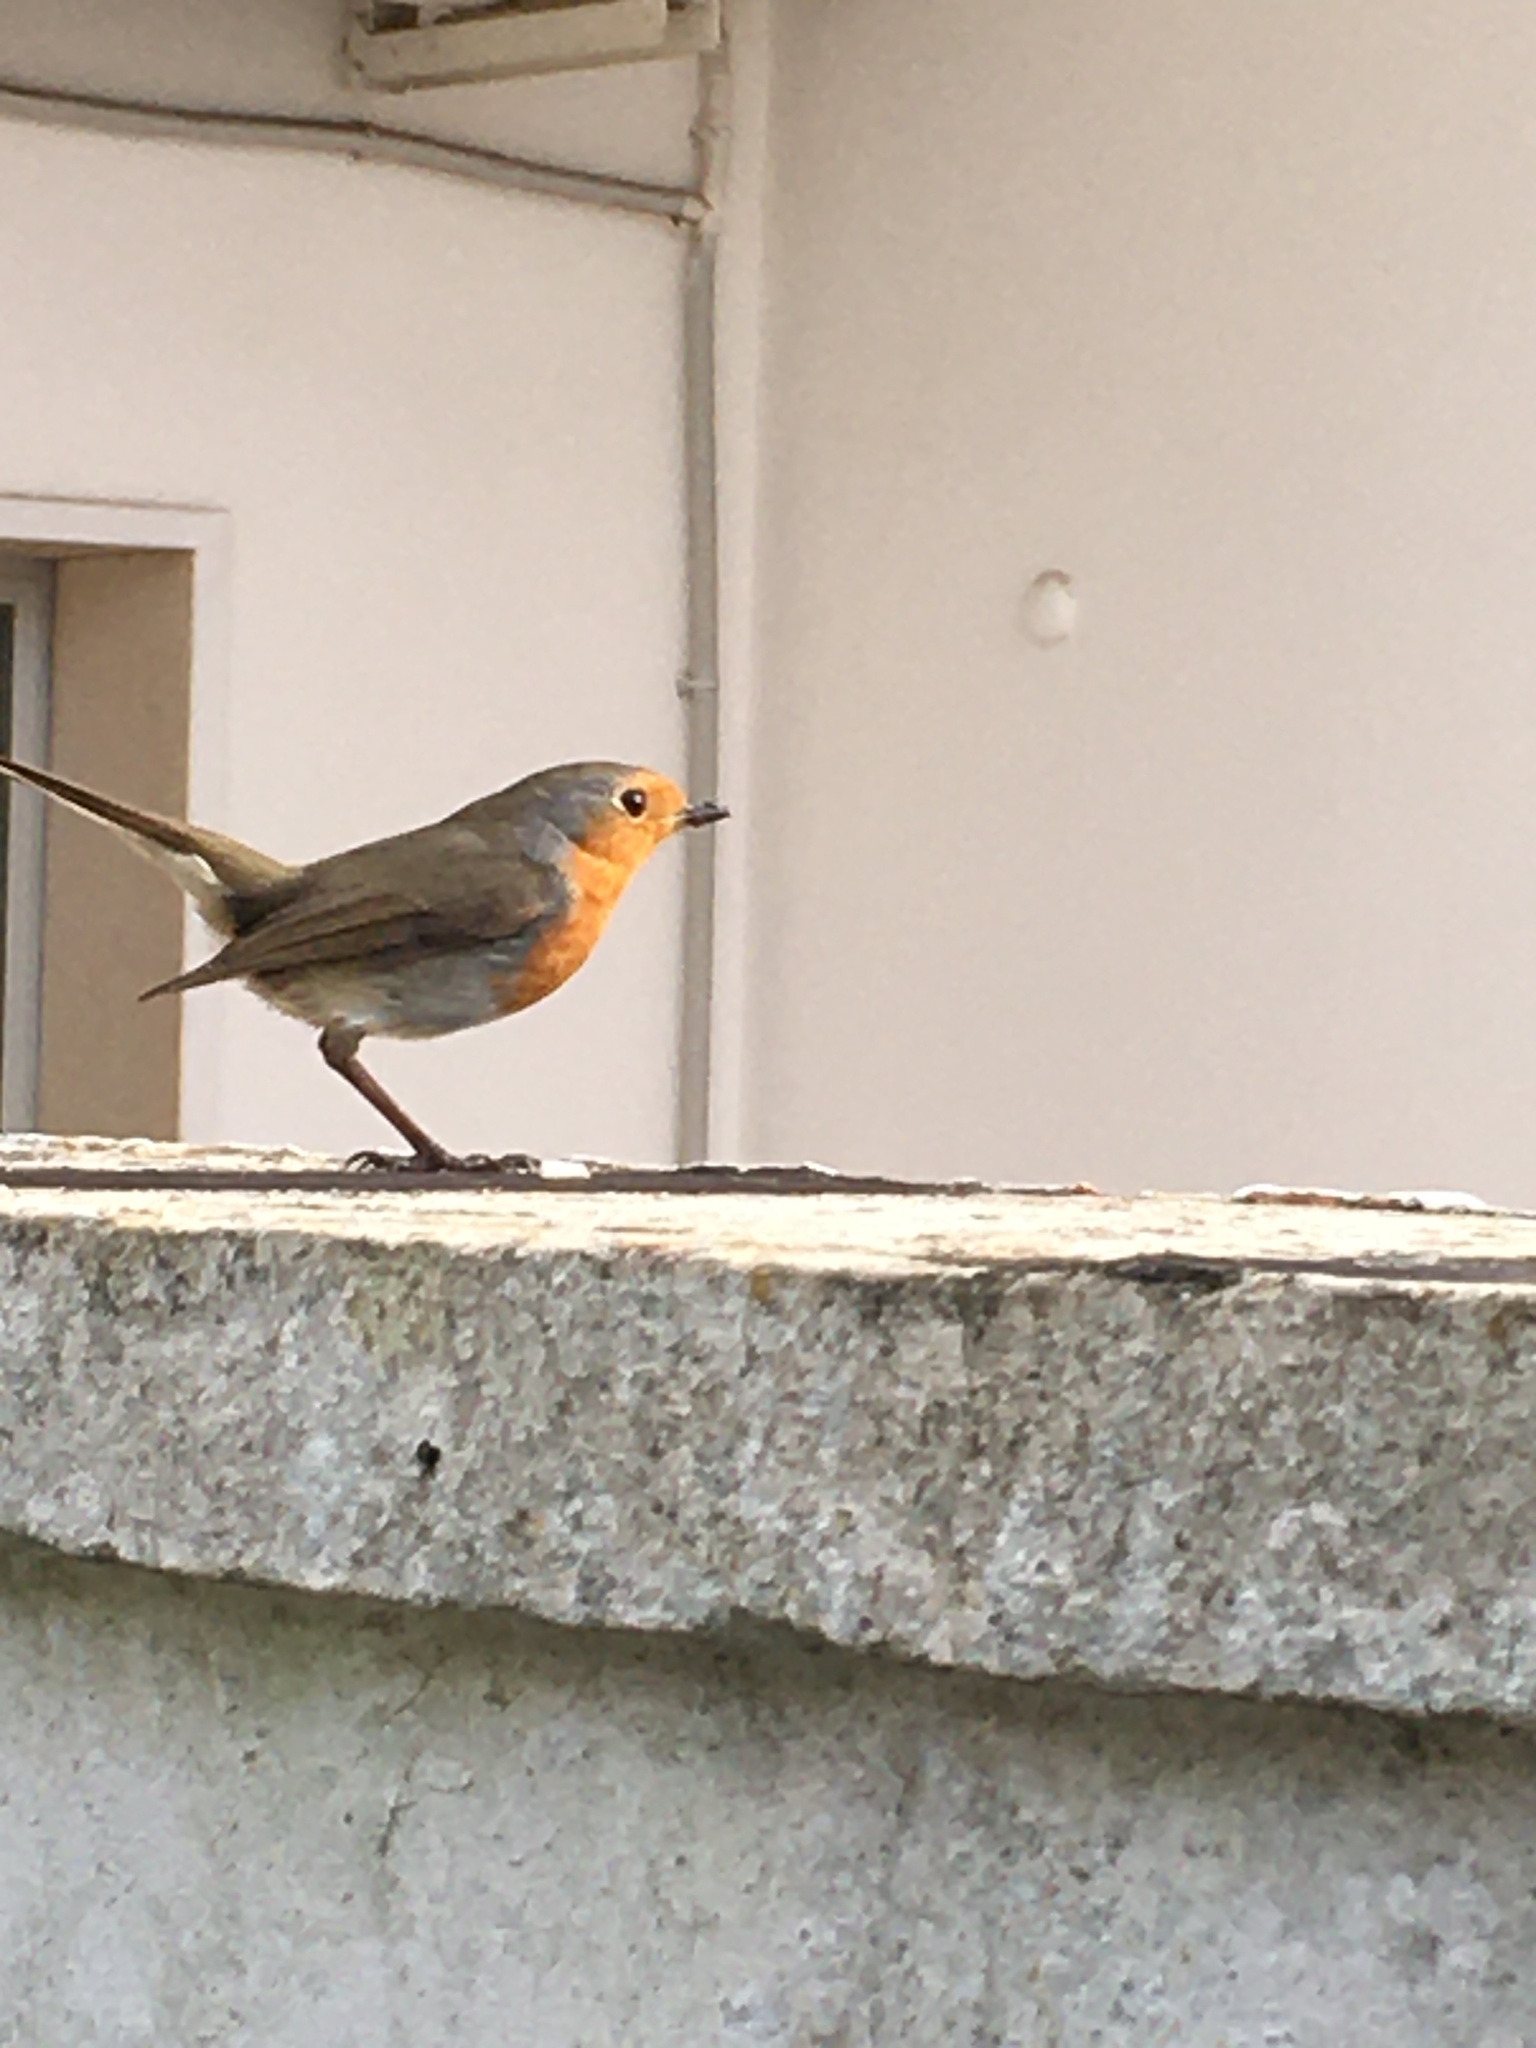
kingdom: Animalia
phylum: Chordata
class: Aves
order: Passeriformes
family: Muscicapidae
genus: Erithacus
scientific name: Erithacus rubecula
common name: European robin
